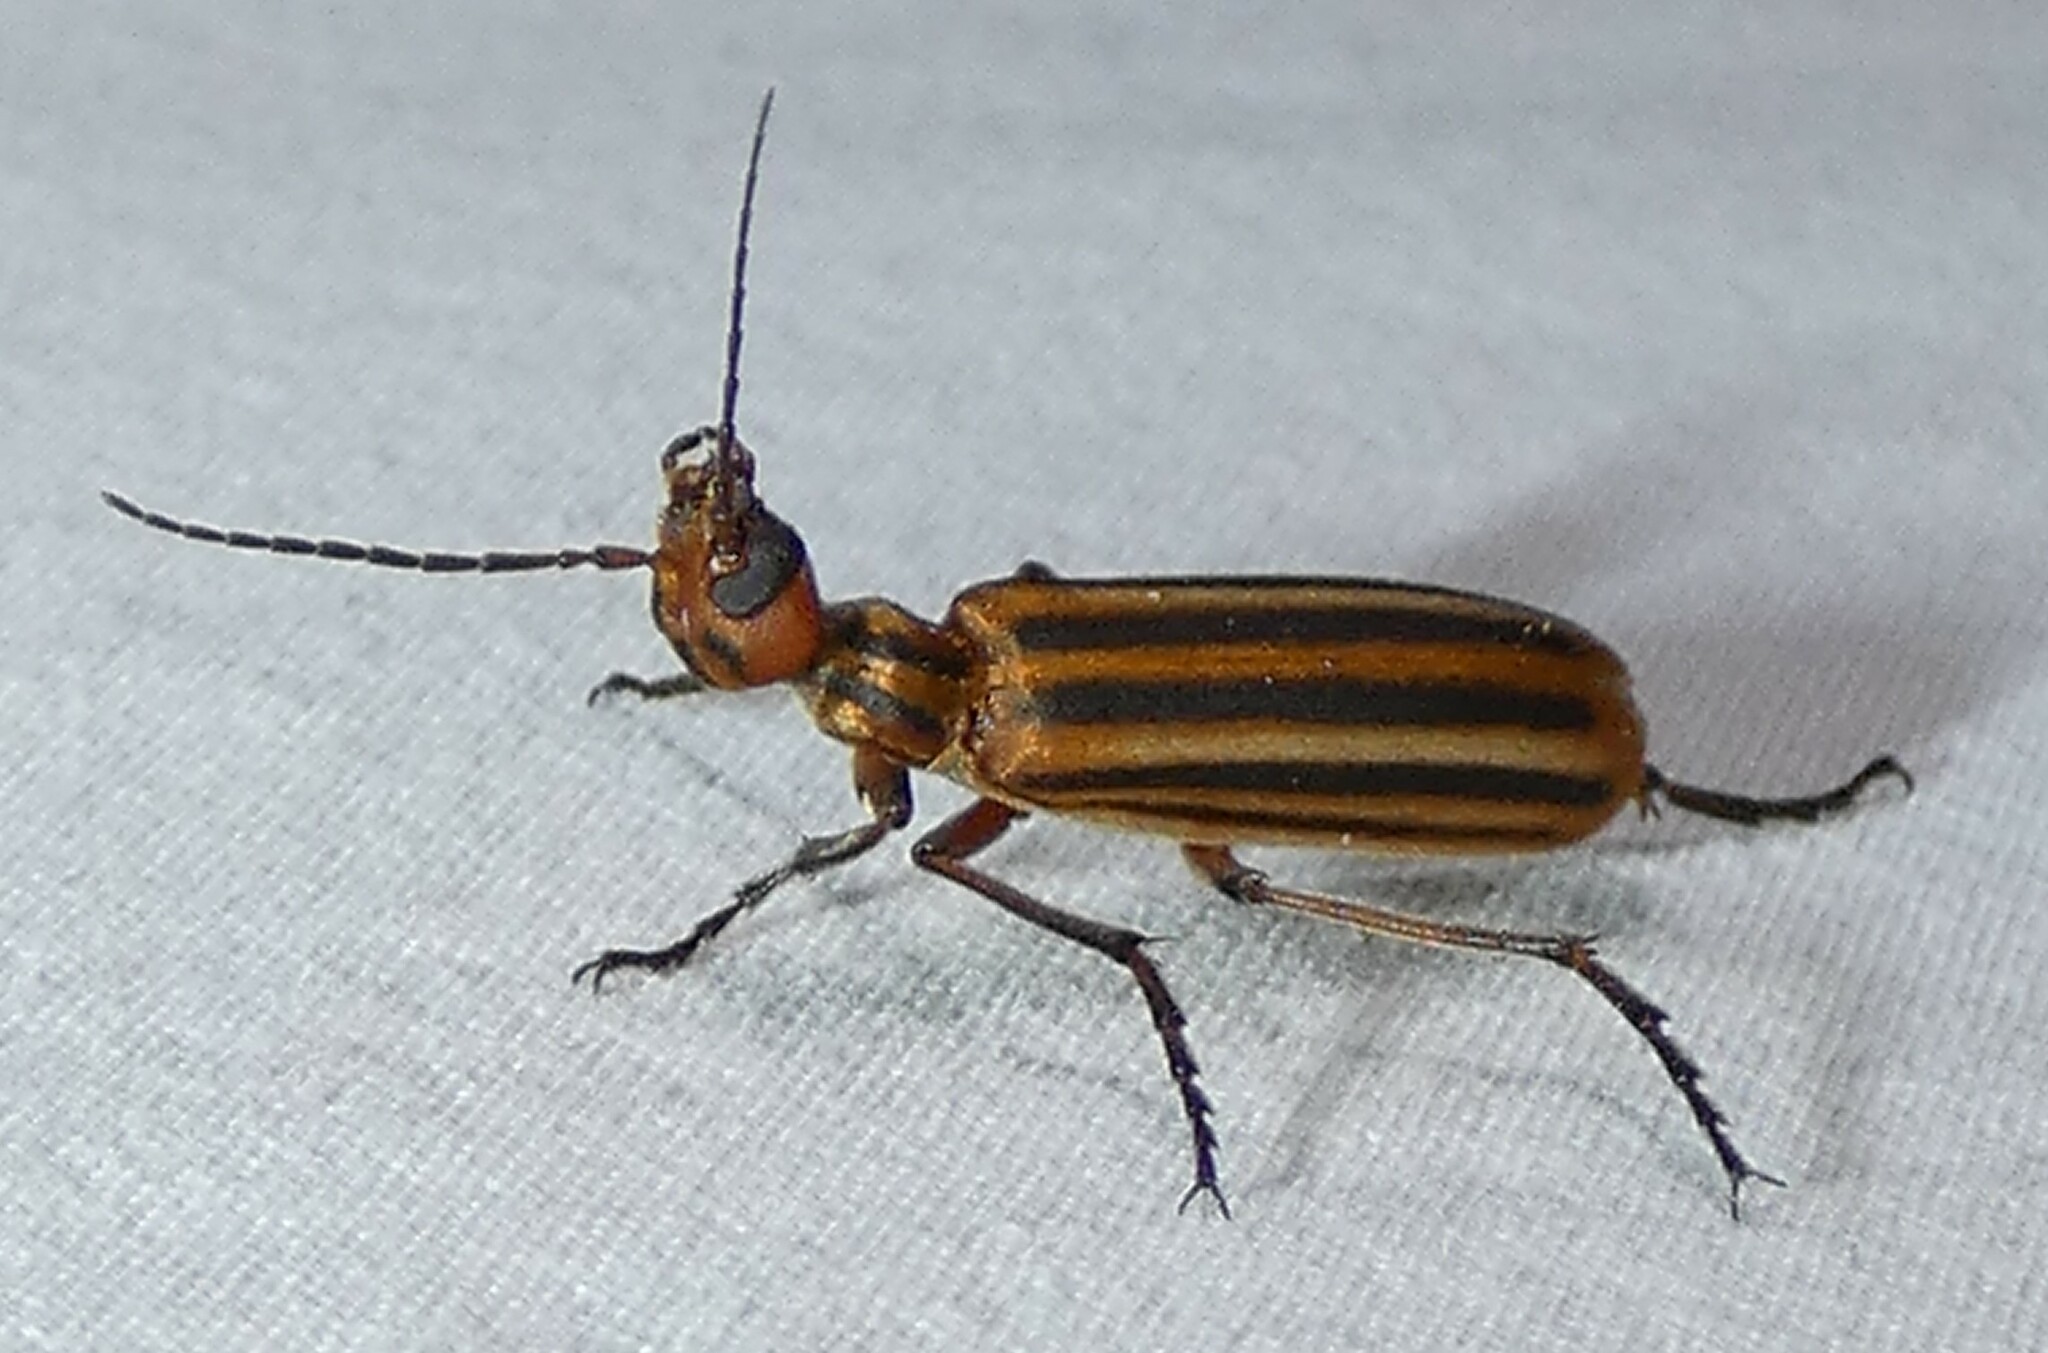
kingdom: Animalia
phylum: Arthropoda
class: Insecta
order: Coleoptera
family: Meloidae
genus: Epicauta
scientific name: Epicauta vittata
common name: Old-fashioned potato beetle
